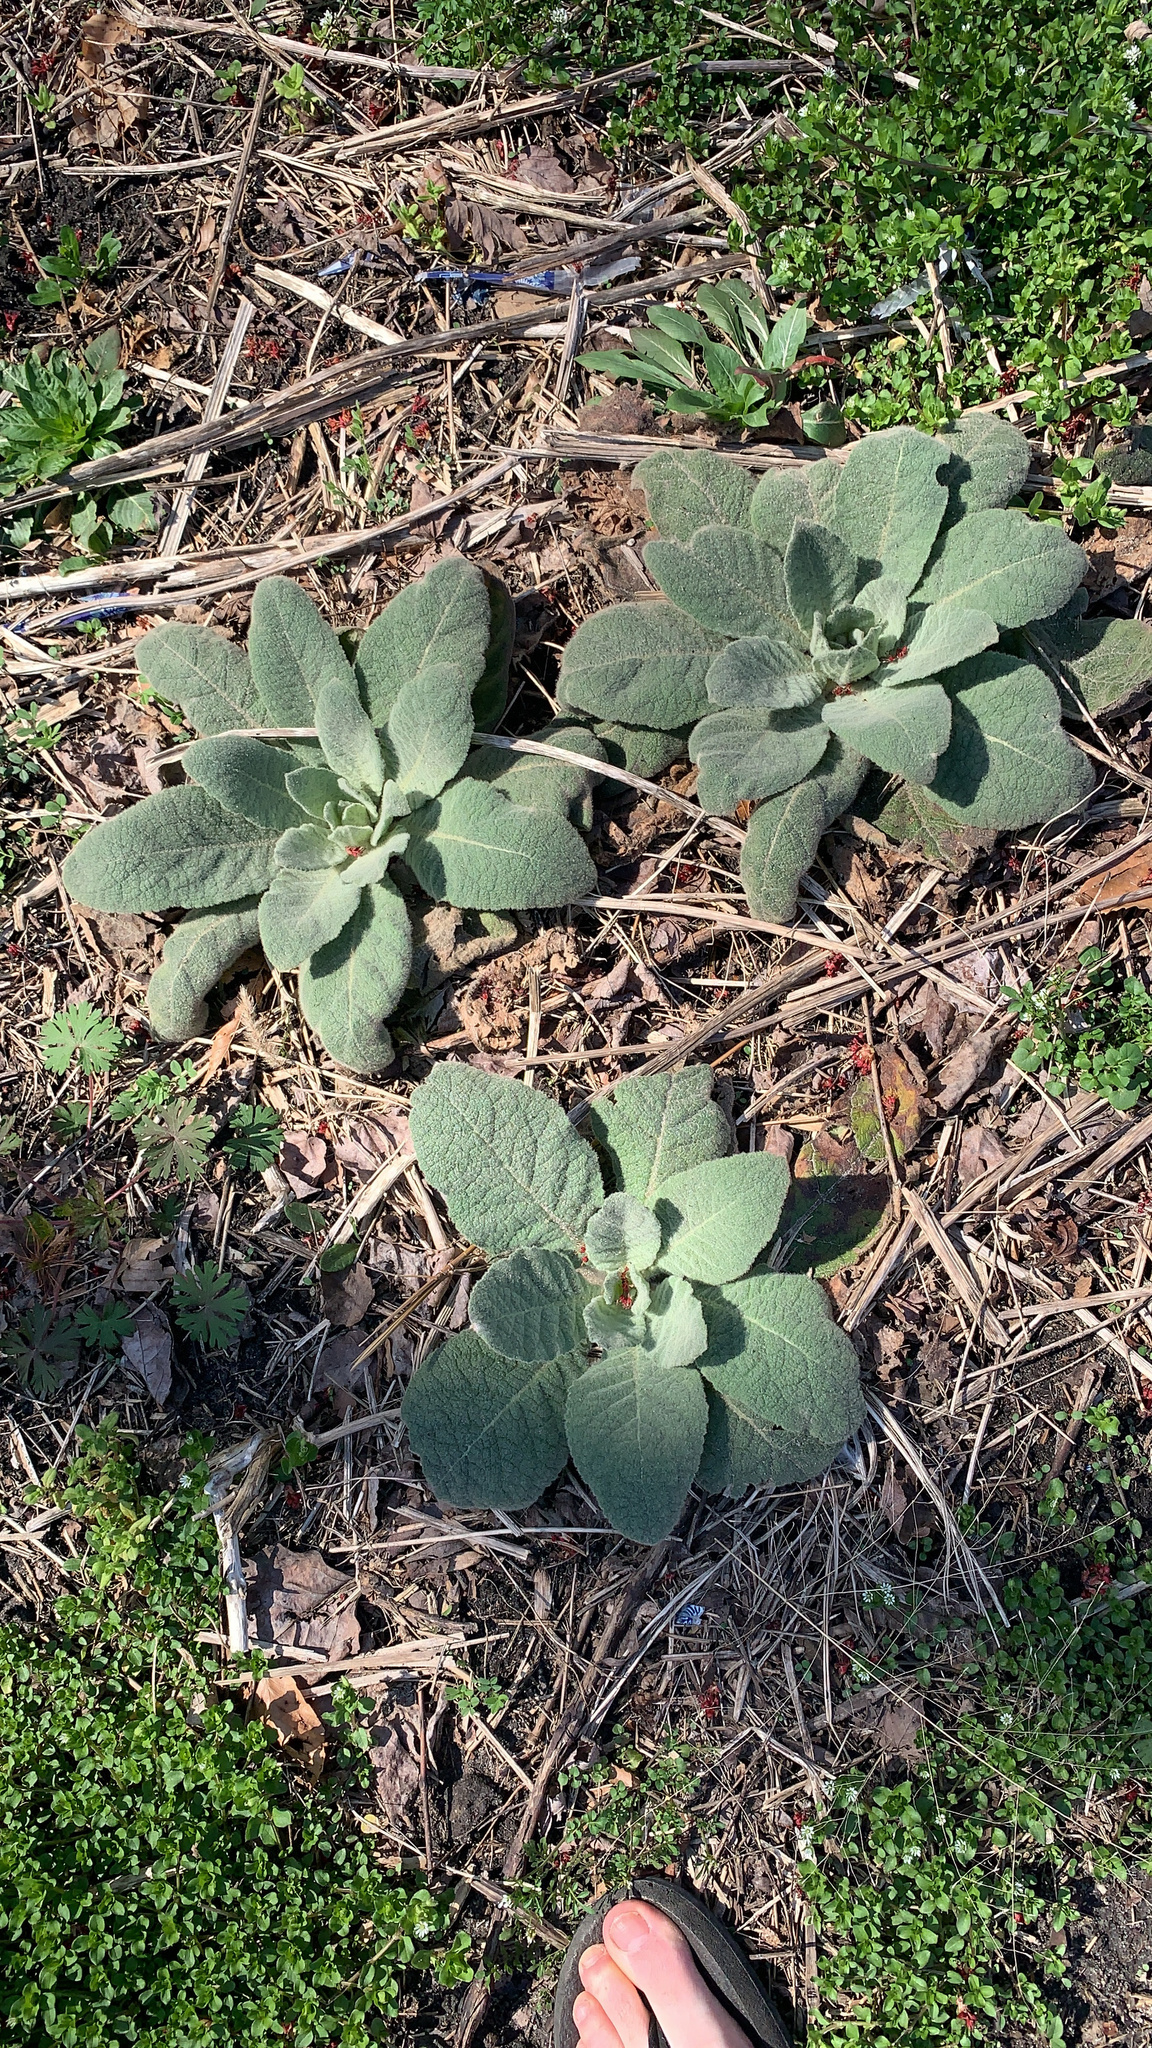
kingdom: Plantae
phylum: Tracheophyta
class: Magnoliopsida
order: Lamiales
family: Scrophulariaceae
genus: Verbascum
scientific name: Verbascum thapsus
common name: Common mullein
